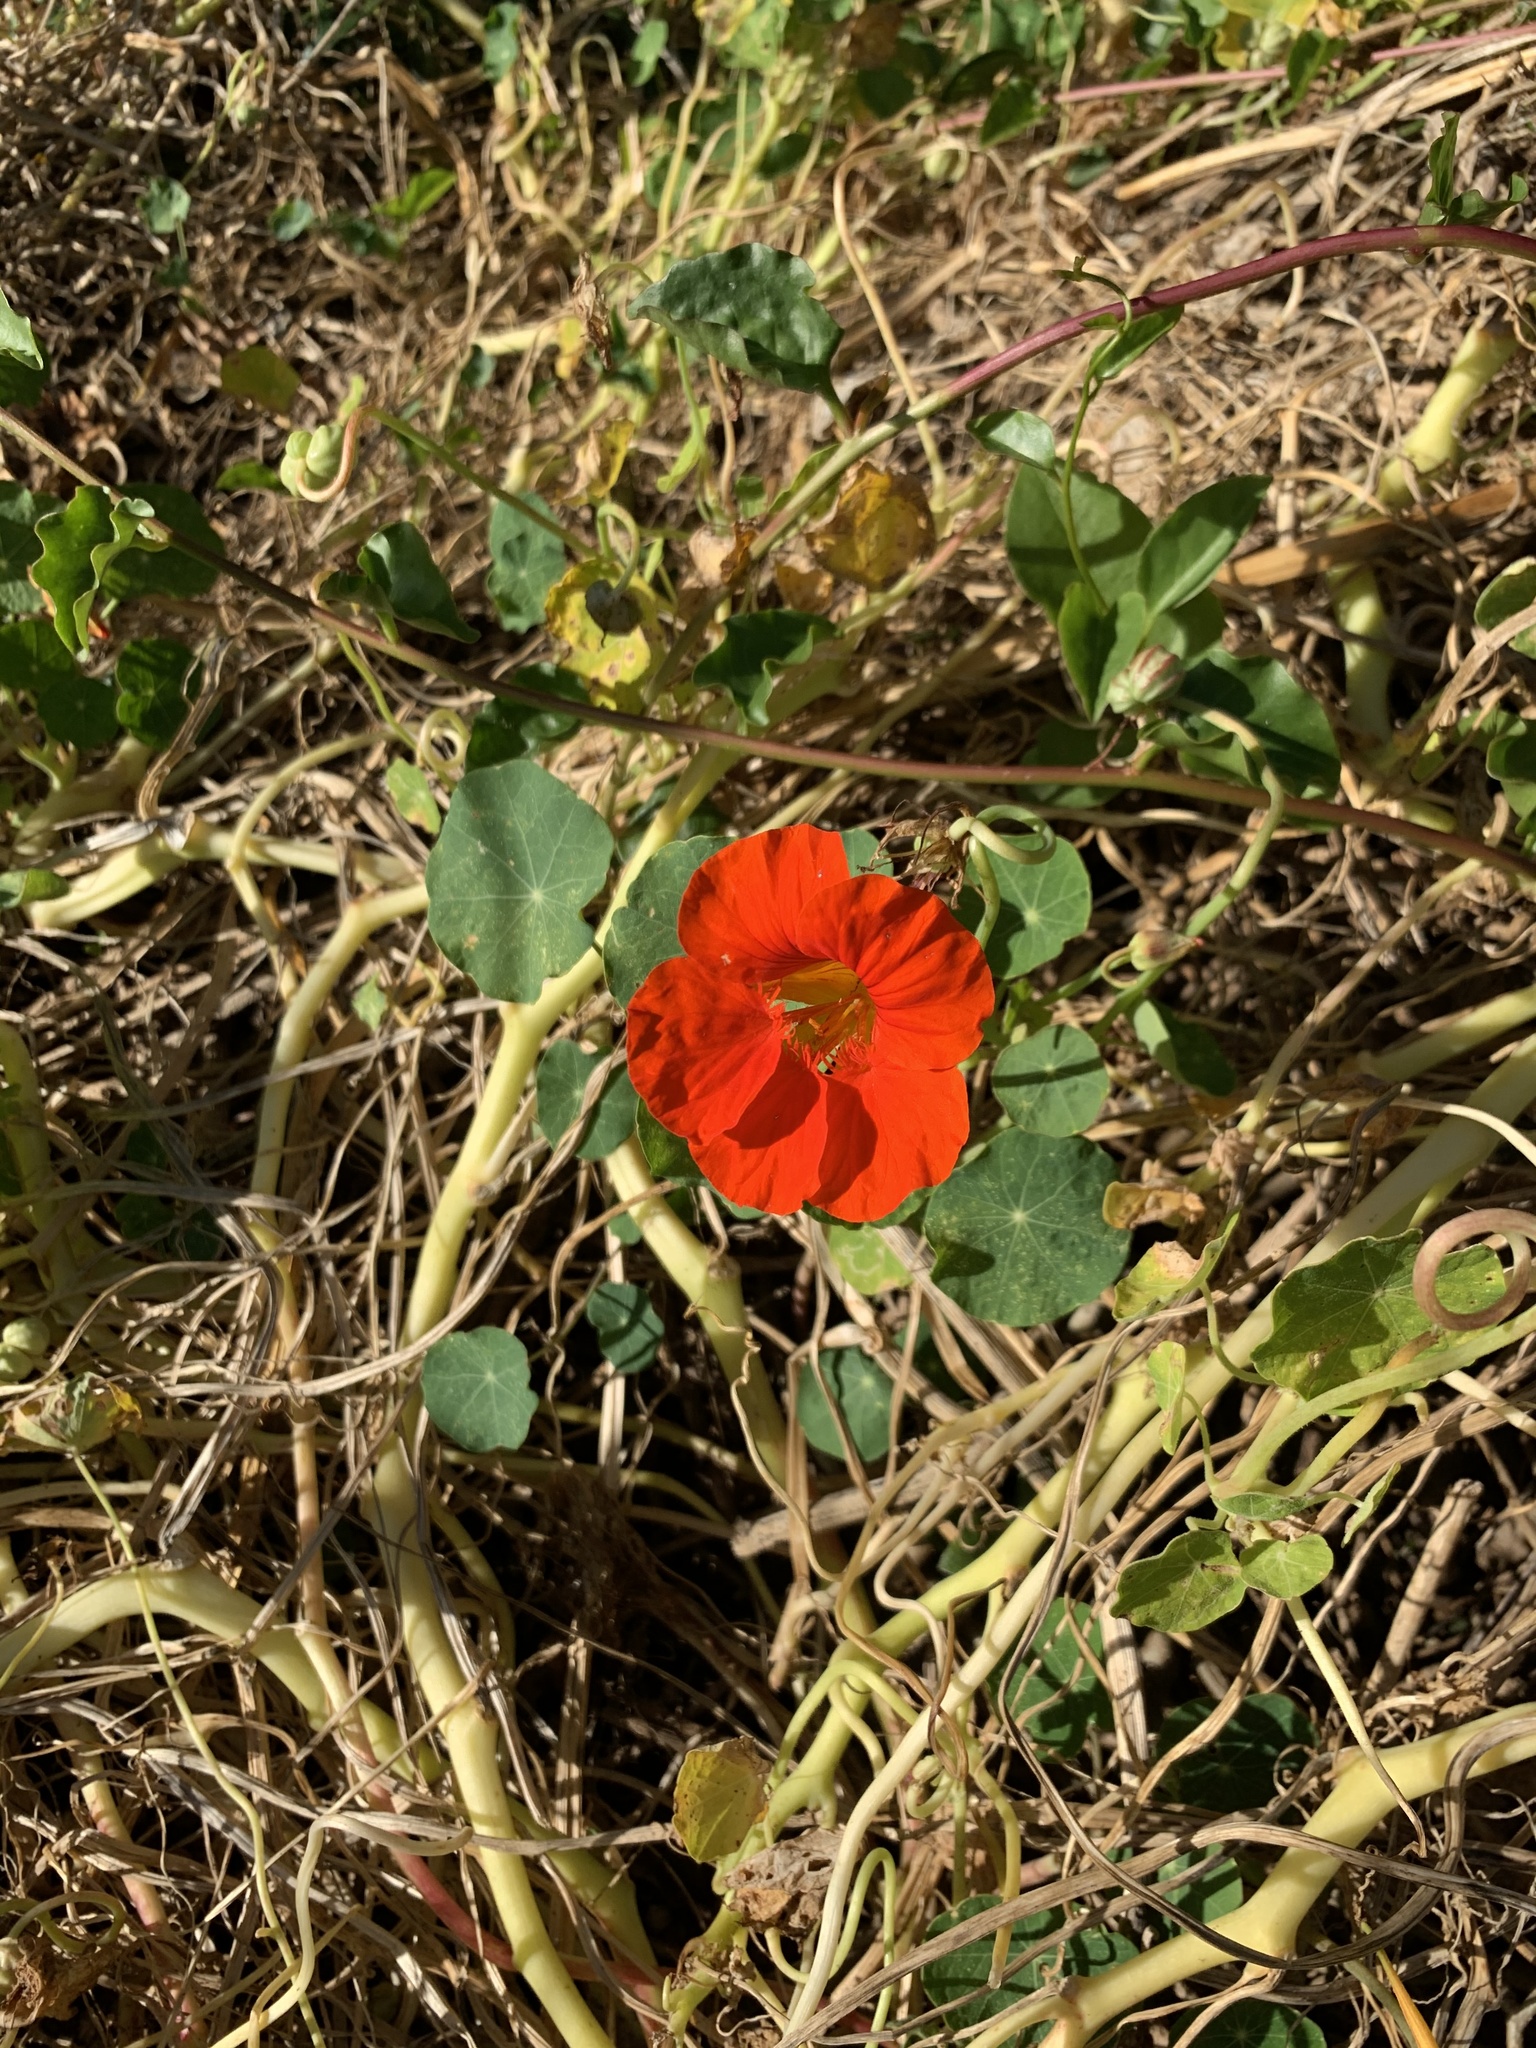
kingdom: Plantae
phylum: Tracheophyta
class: Magnoliopsida
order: Brassicales
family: Tropaeolaceae
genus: Tropaeolum
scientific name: Tropaeolum majus
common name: Nasturtium
